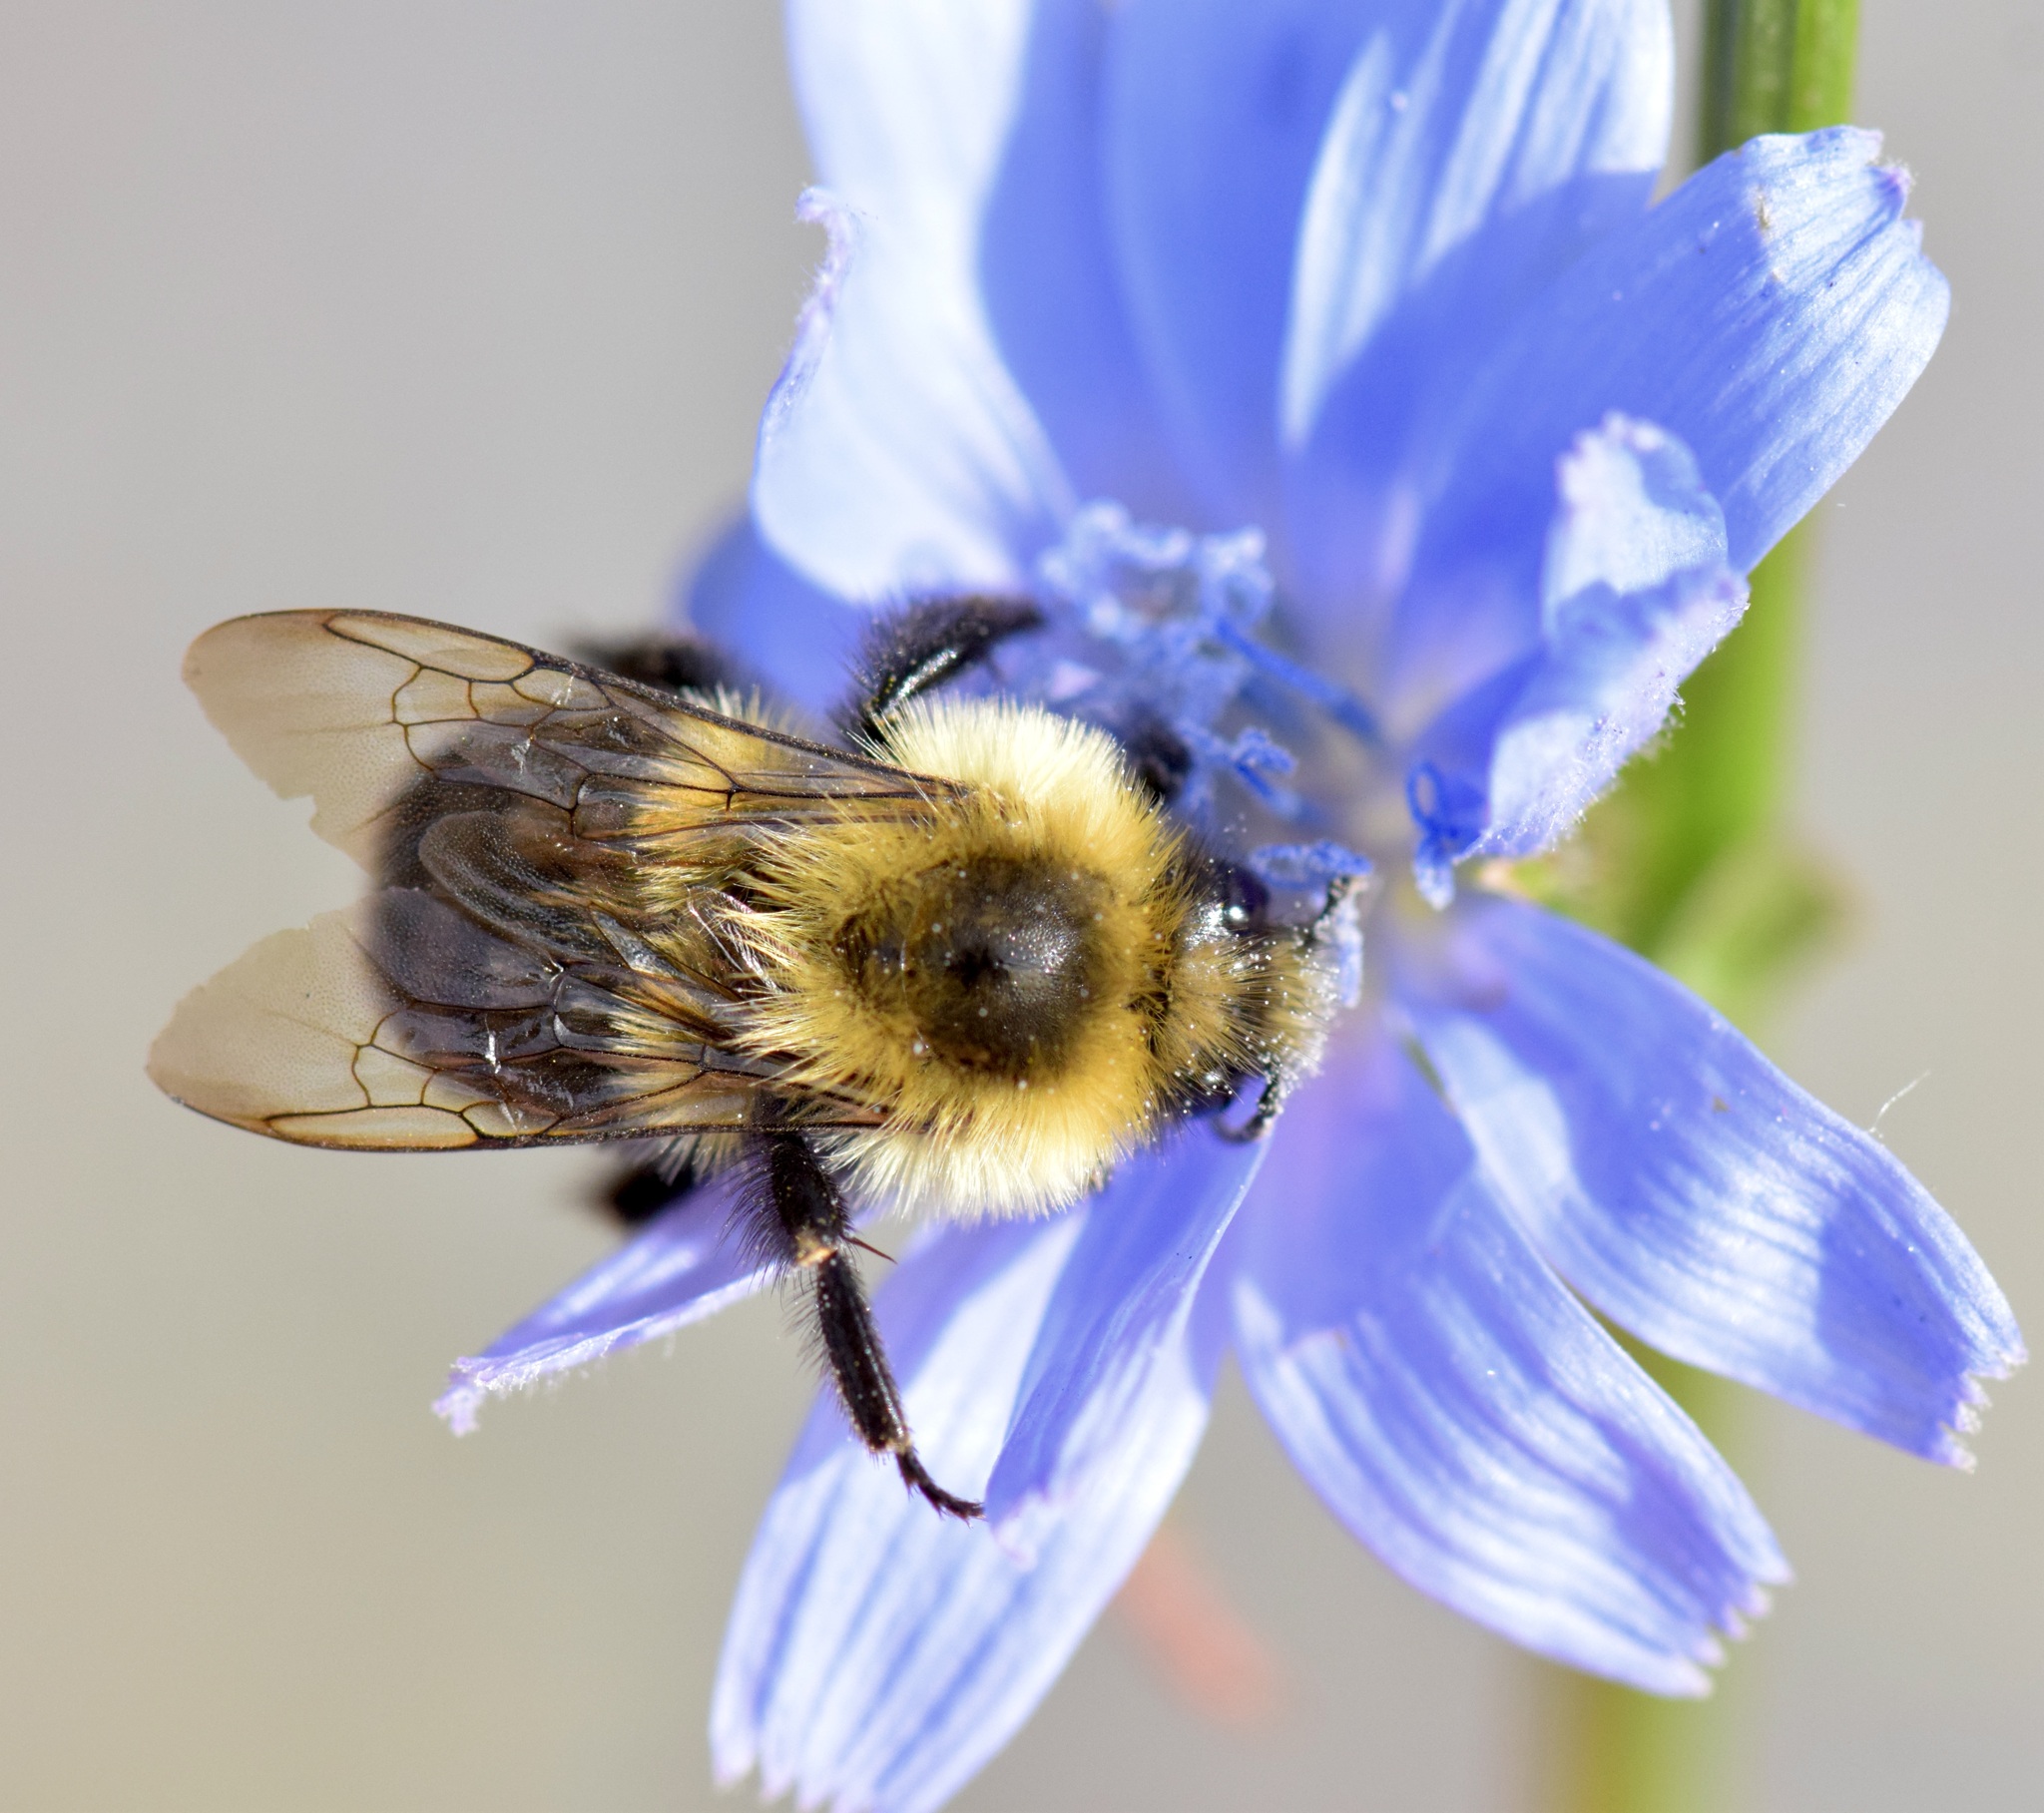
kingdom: Animalia
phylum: Arthropoda
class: Insecta
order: Hymenoptera
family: Apidae
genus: Bombus
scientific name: Bombus impatiens
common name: Common eastern bumble bee
